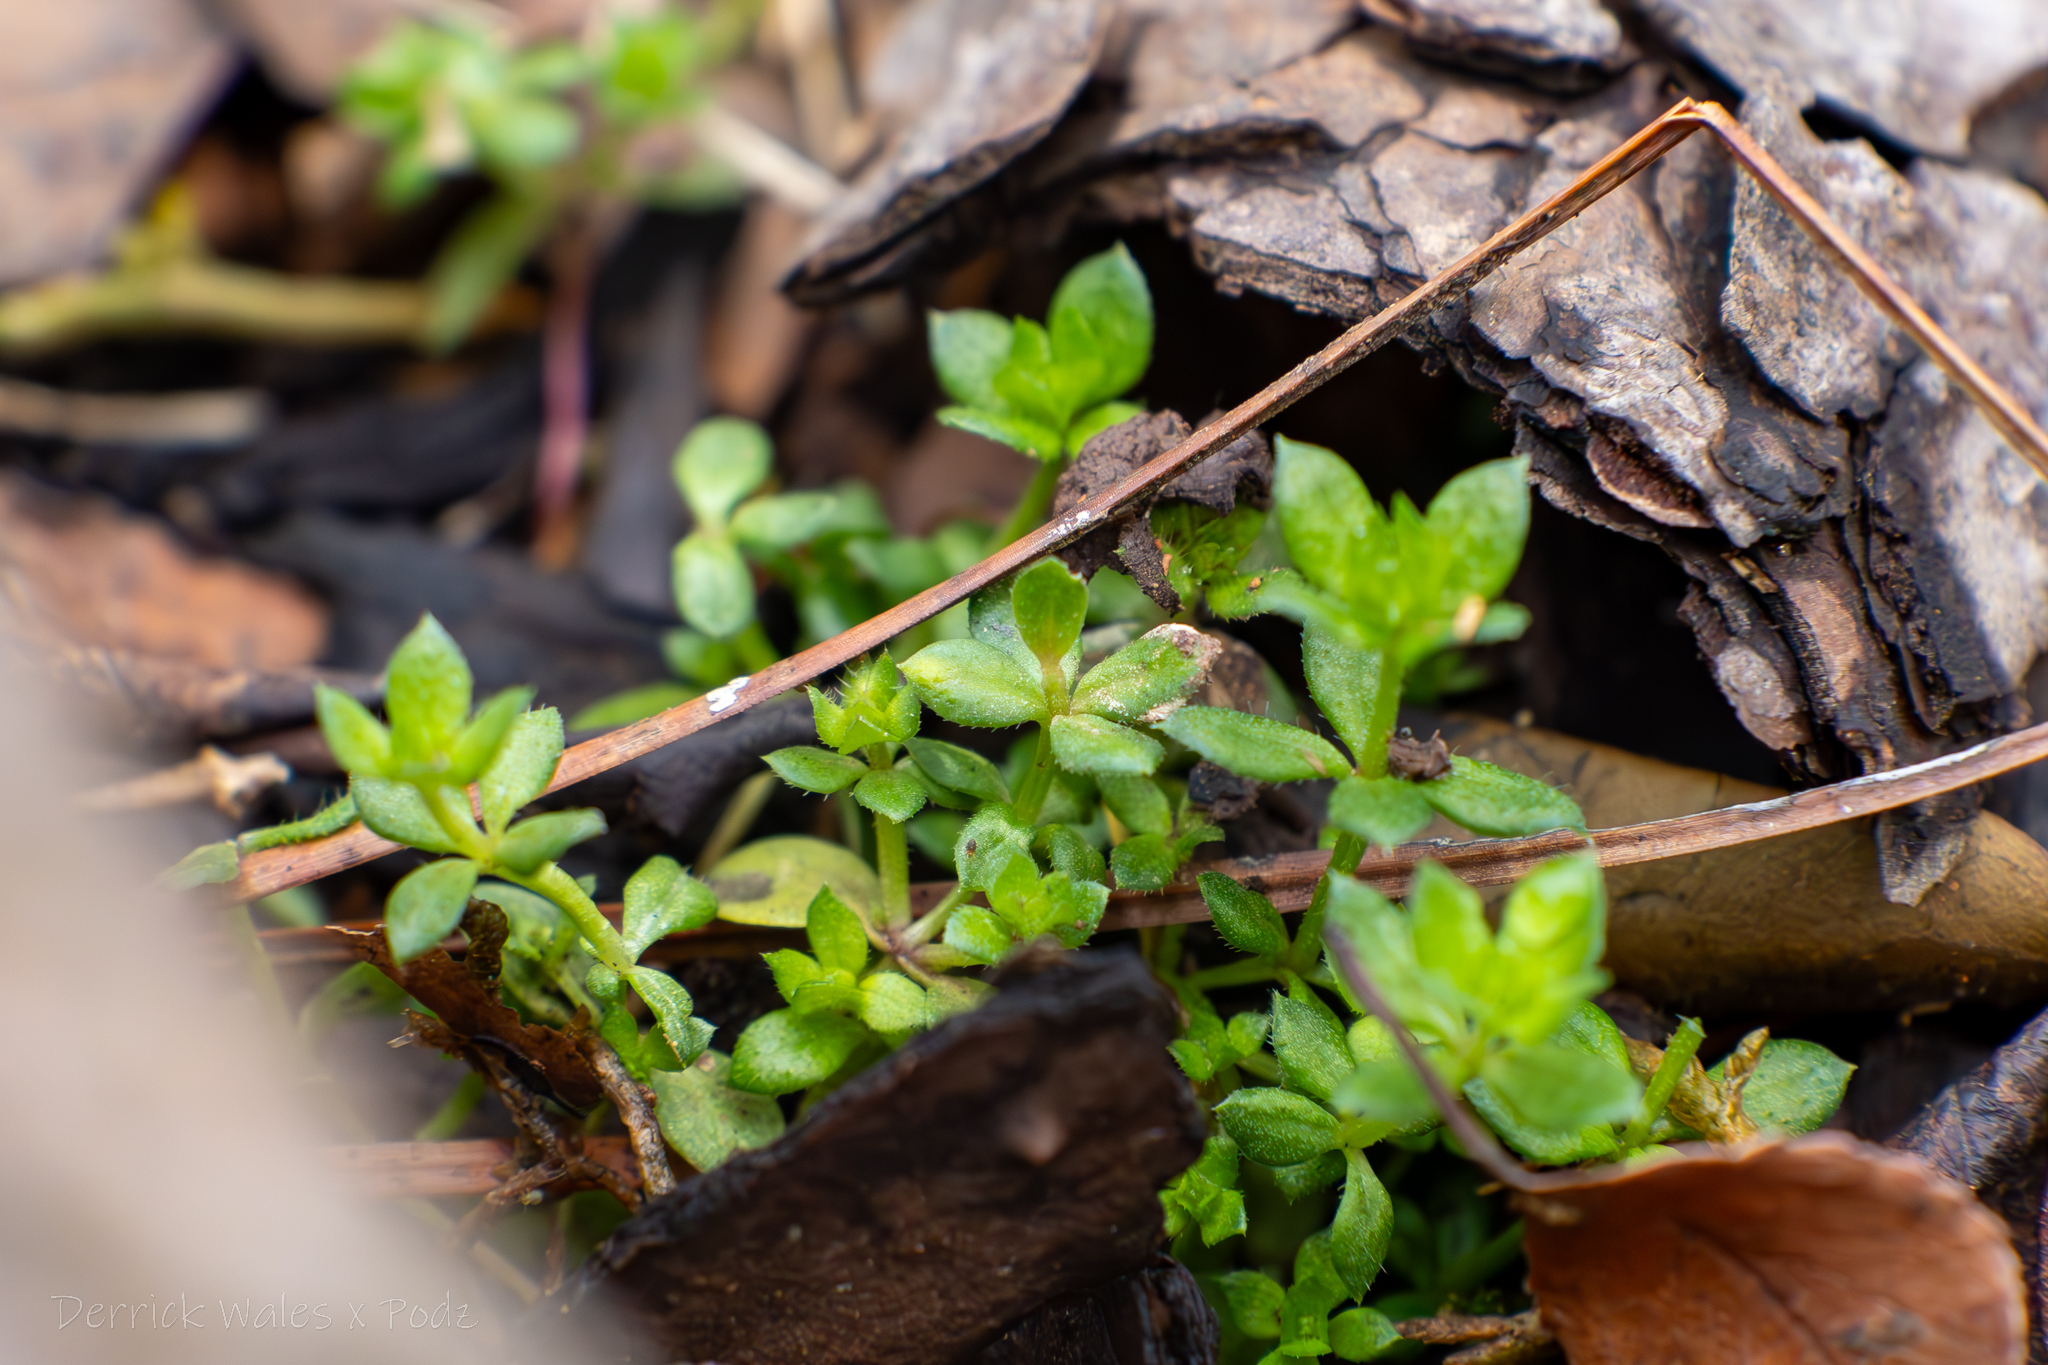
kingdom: Plantae
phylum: Tracheophyta
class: Magnoliopsida
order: Gentianales
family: Rubiaceae
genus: Sherardia
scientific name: Sherardia arvensis
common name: Field madder
